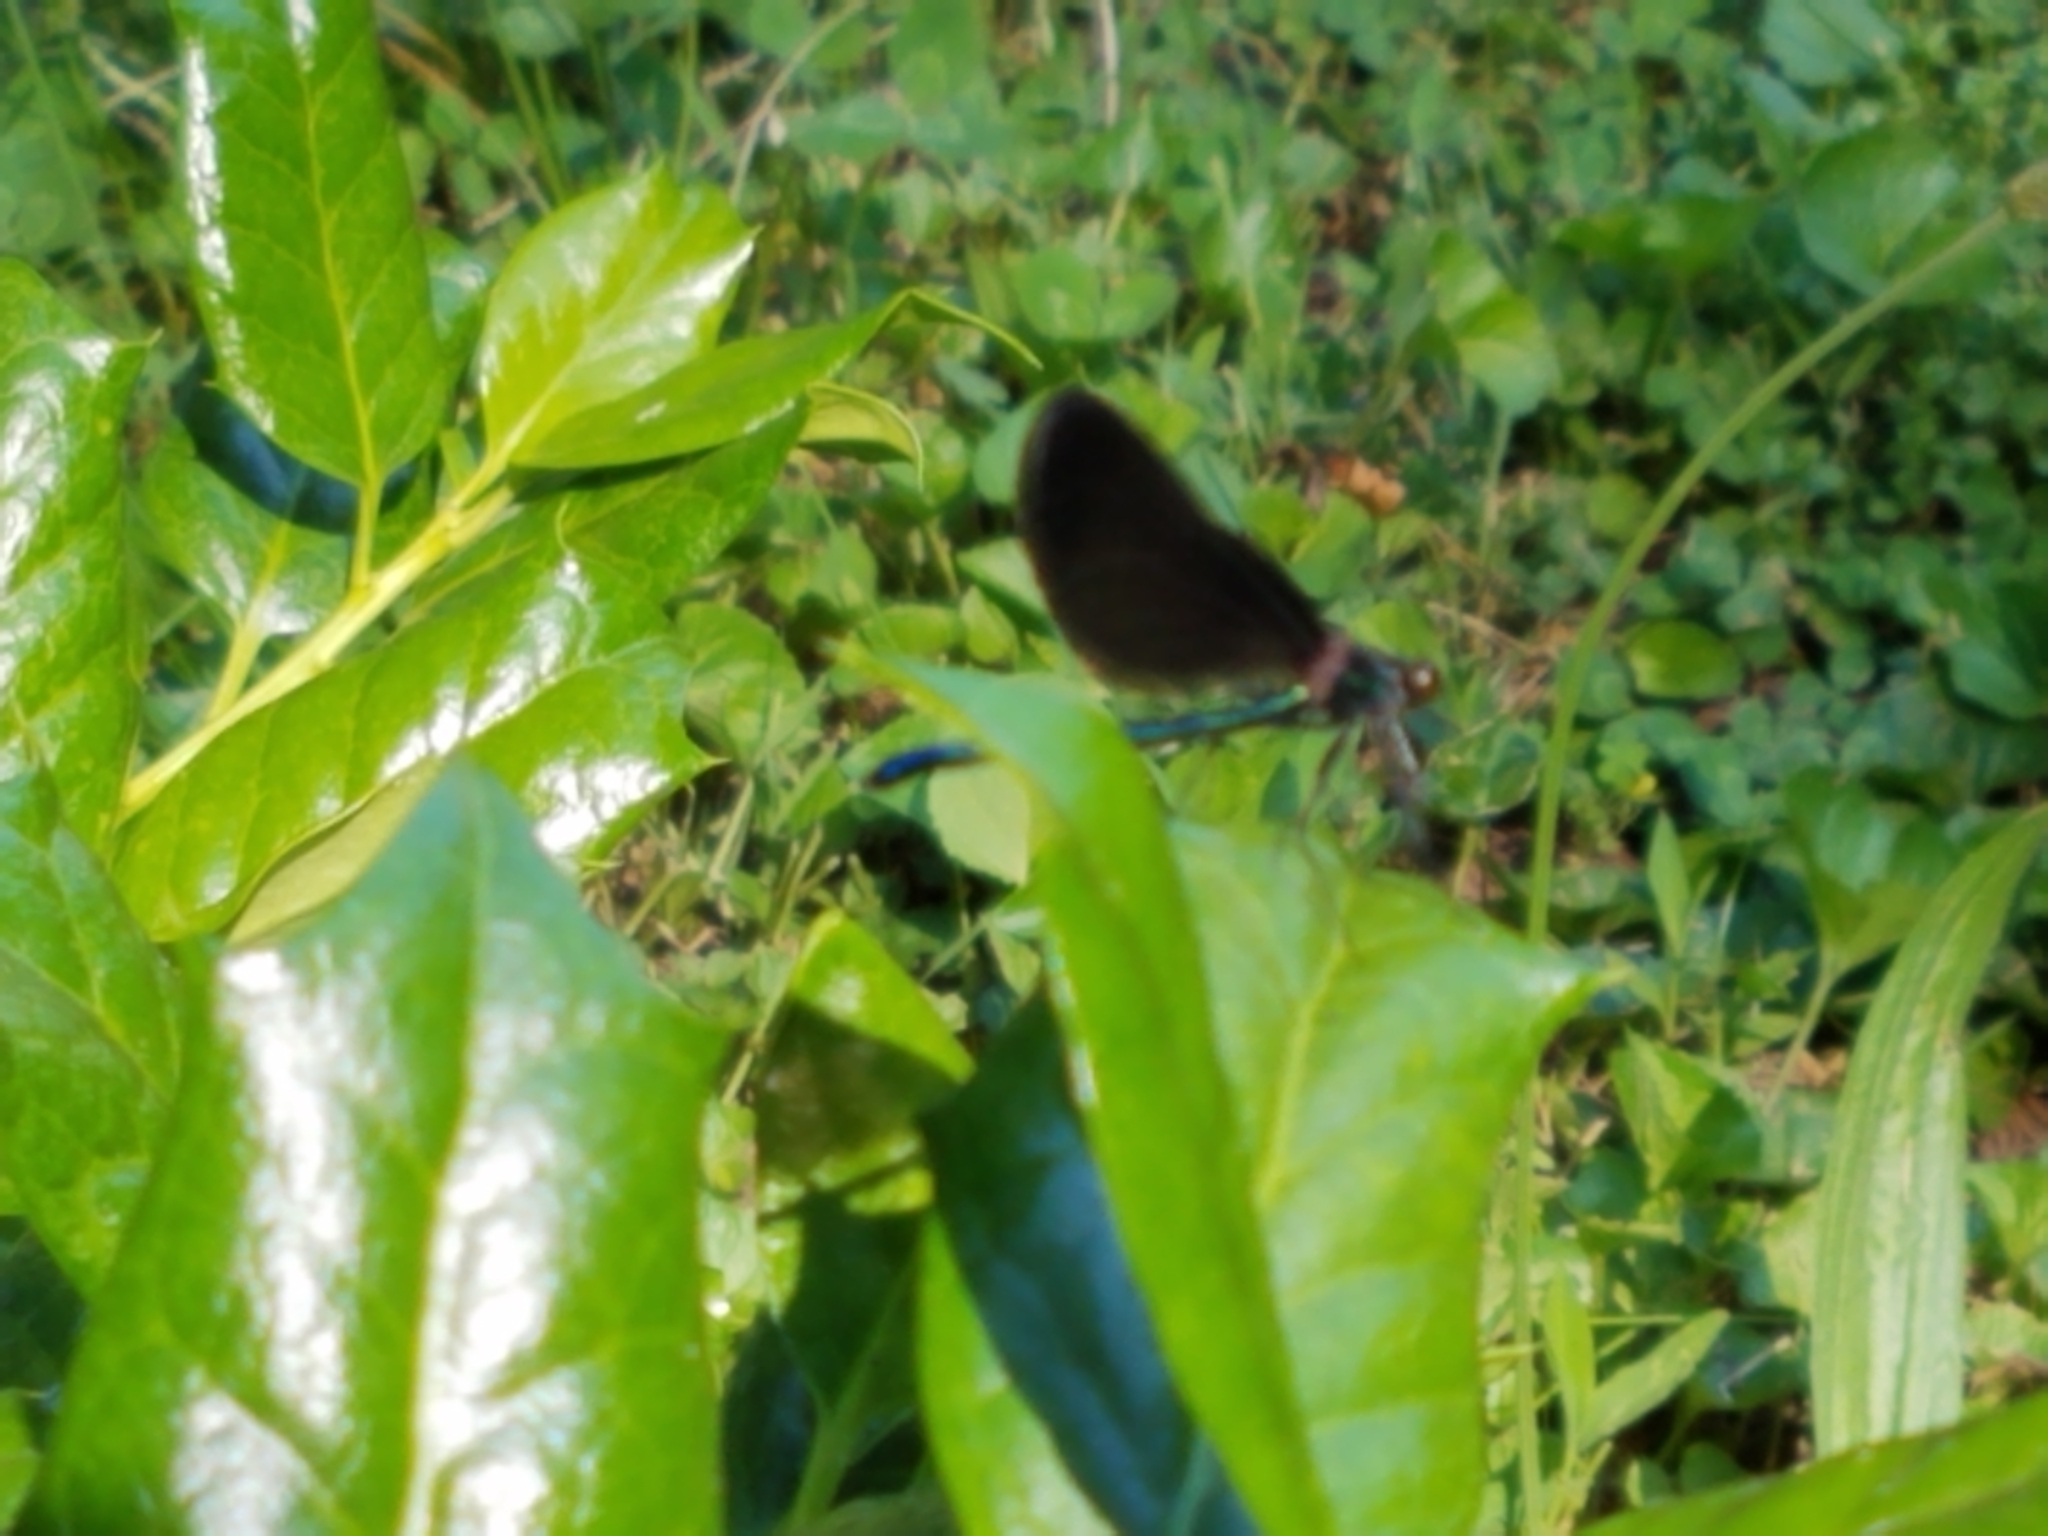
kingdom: Animalia
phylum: Arthropoda
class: Insecta
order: Odonata
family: Calopterygidae
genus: Calopteryx
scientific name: Calopteryx maculata
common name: Ebony jewelwing
